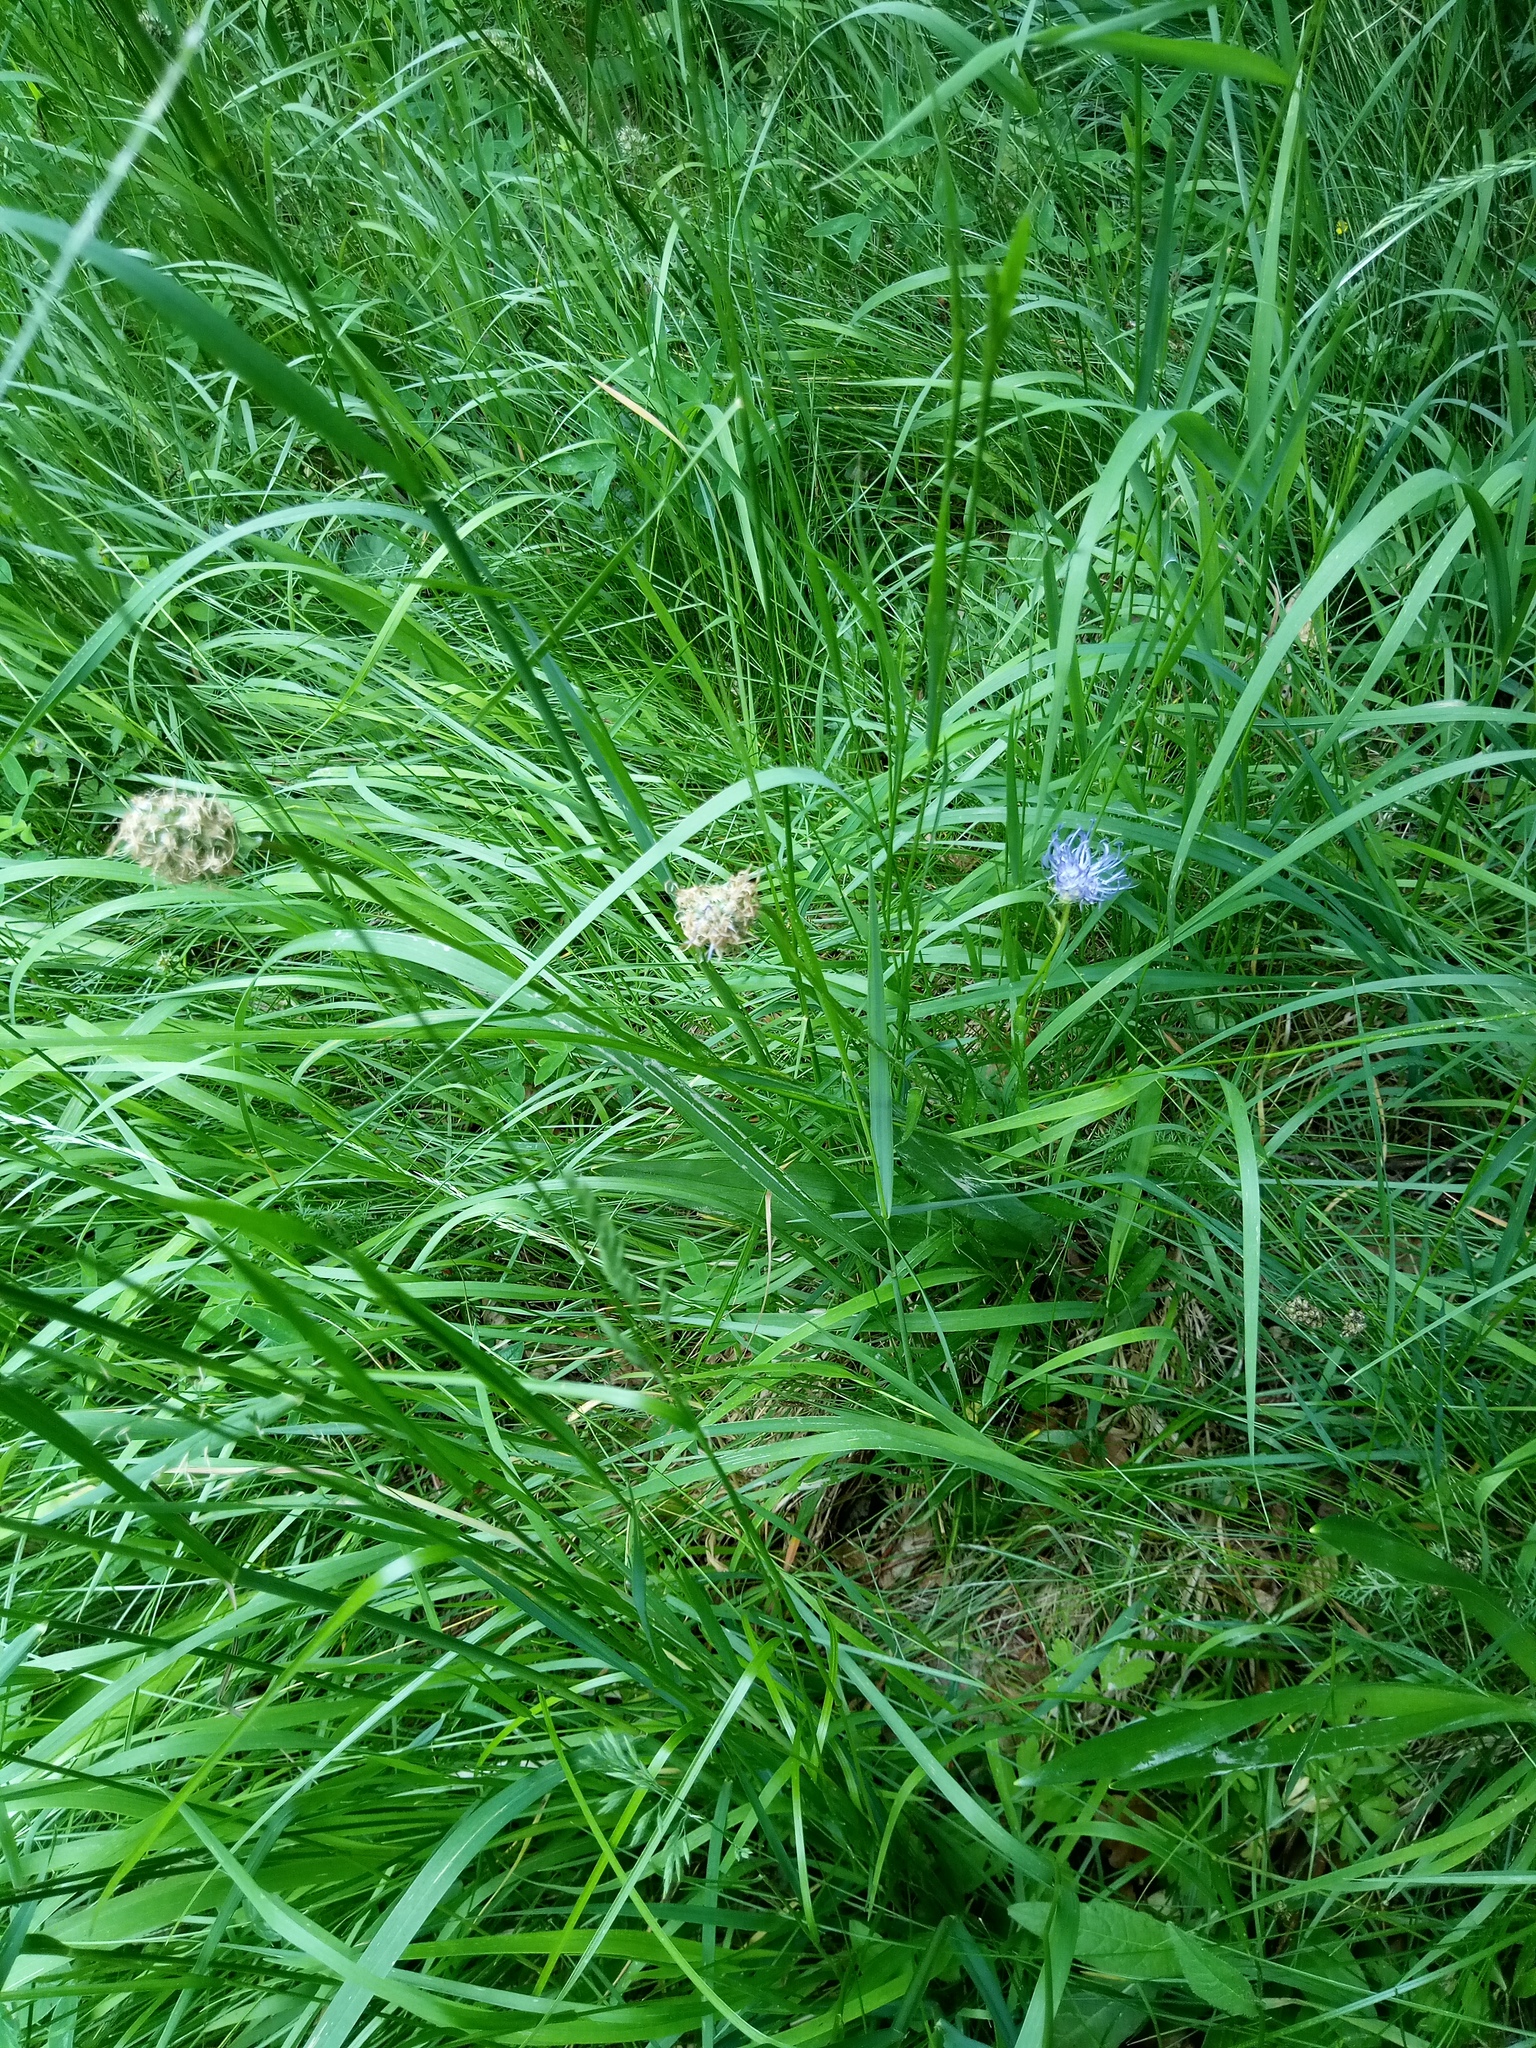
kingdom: Plantae
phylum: Tracheophyta
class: Magnoliopsida
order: Asterales
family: Campanulaceae
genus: Phyteuma
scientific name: Phyteuma orbiculare
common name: Round-headed rampion
